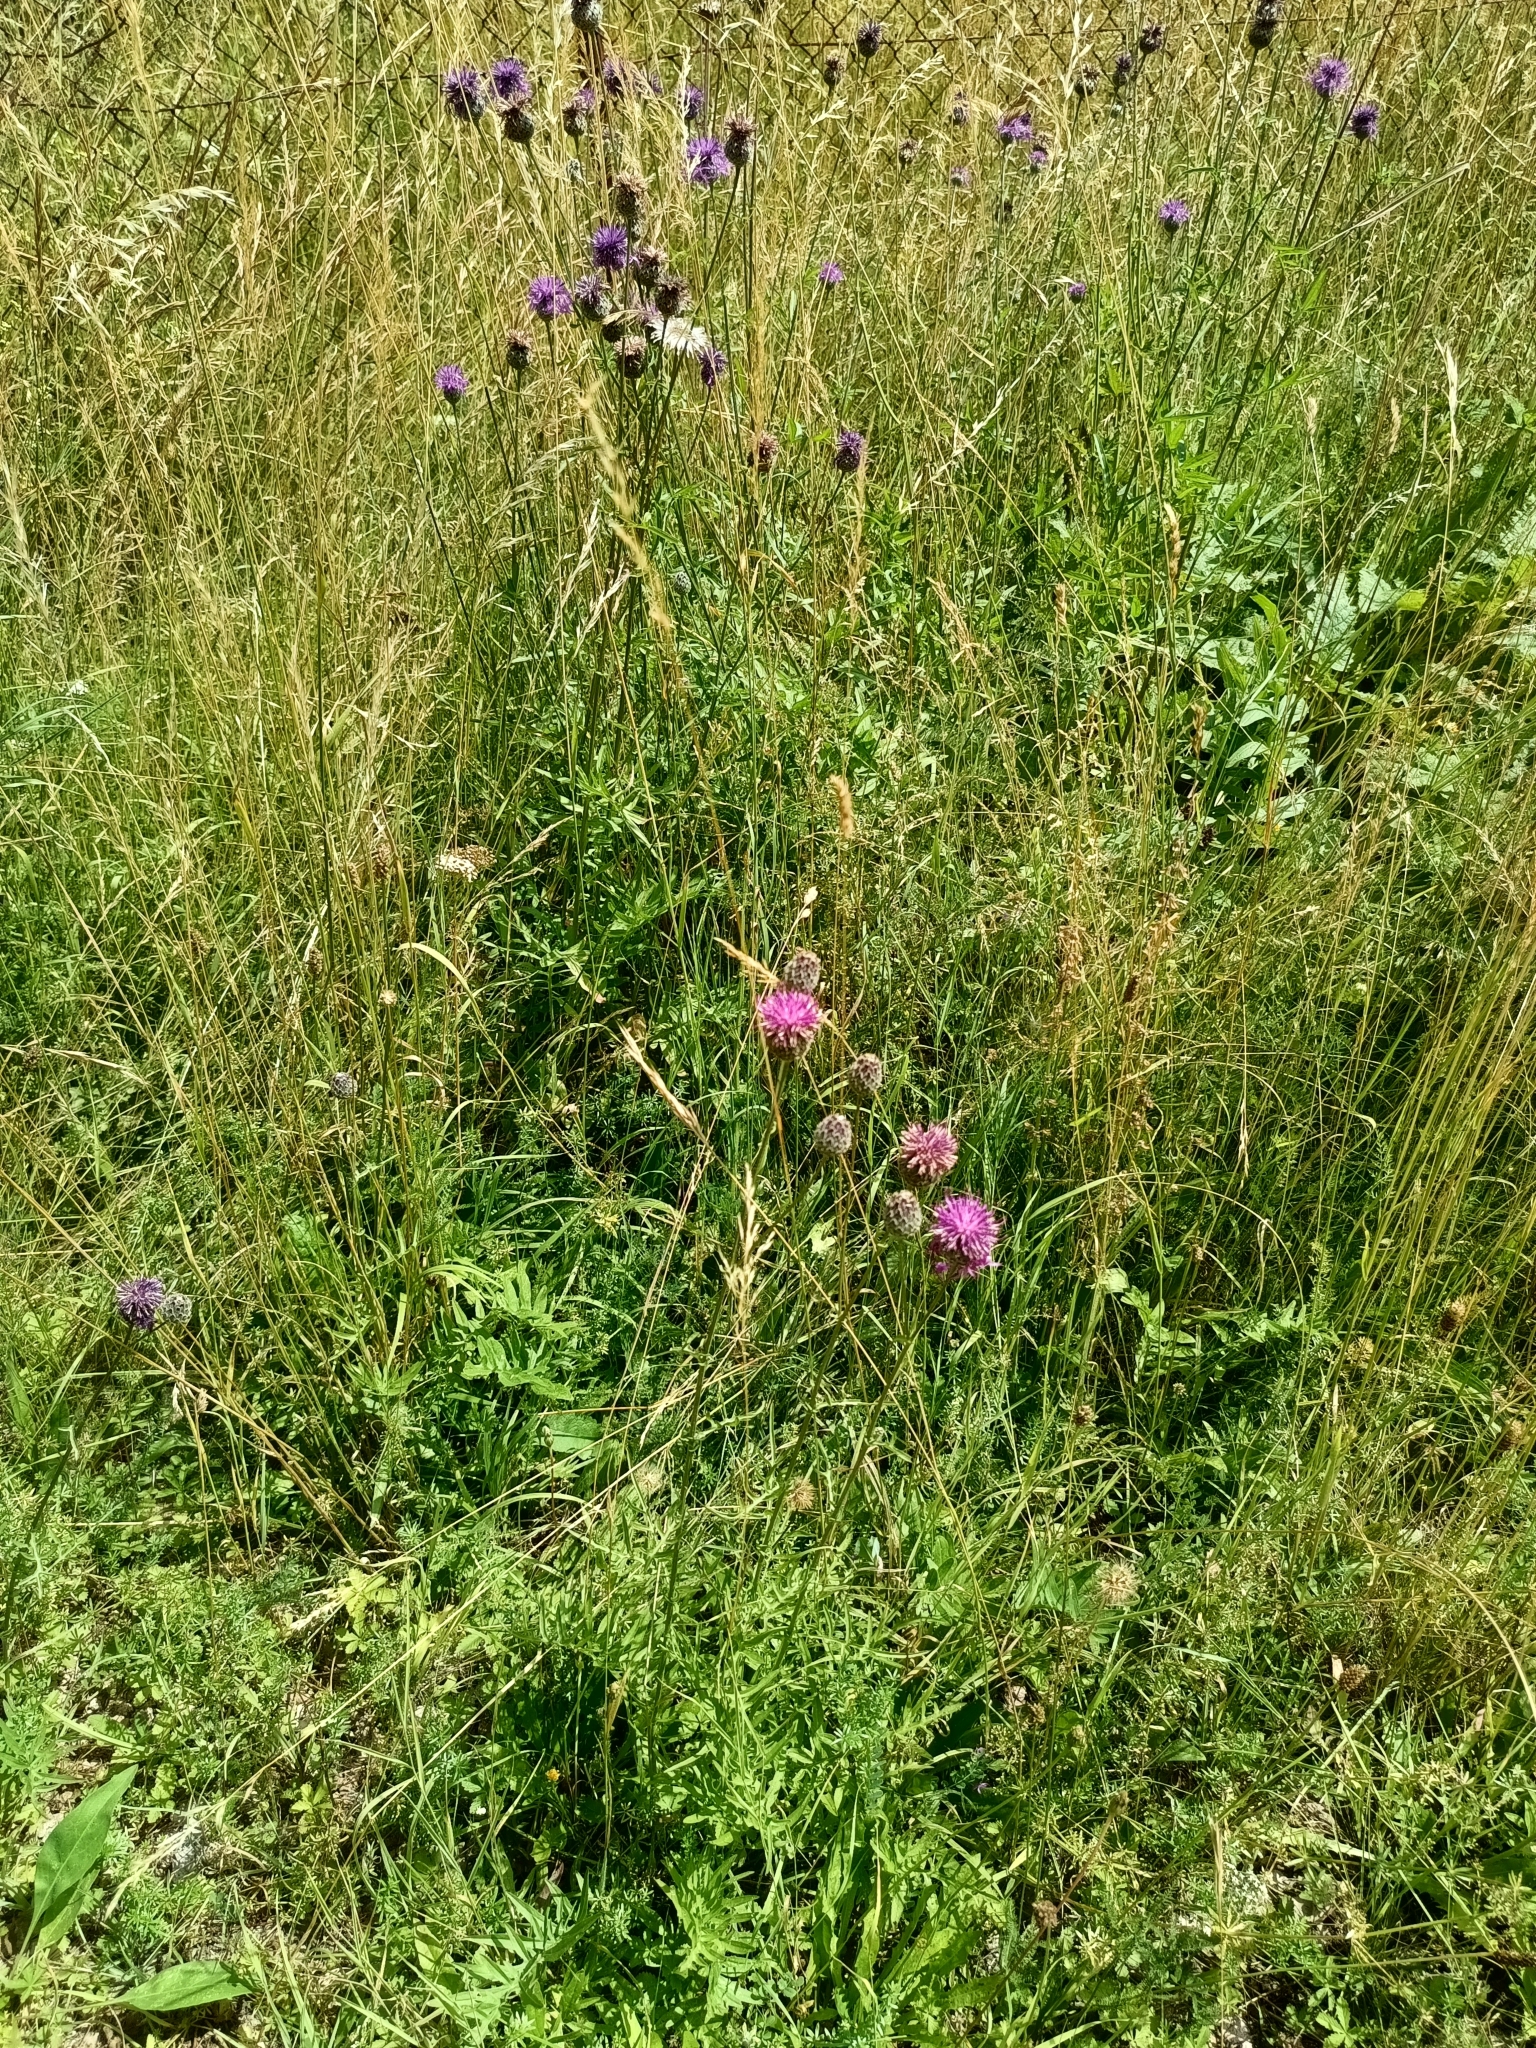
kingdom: Plantae
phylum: Tracheophyta
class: Magnoliopsida
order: Asterales
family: Asteraceae
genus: Centaurea
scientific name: Centaurea scabiosa
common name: Greater knapweed
